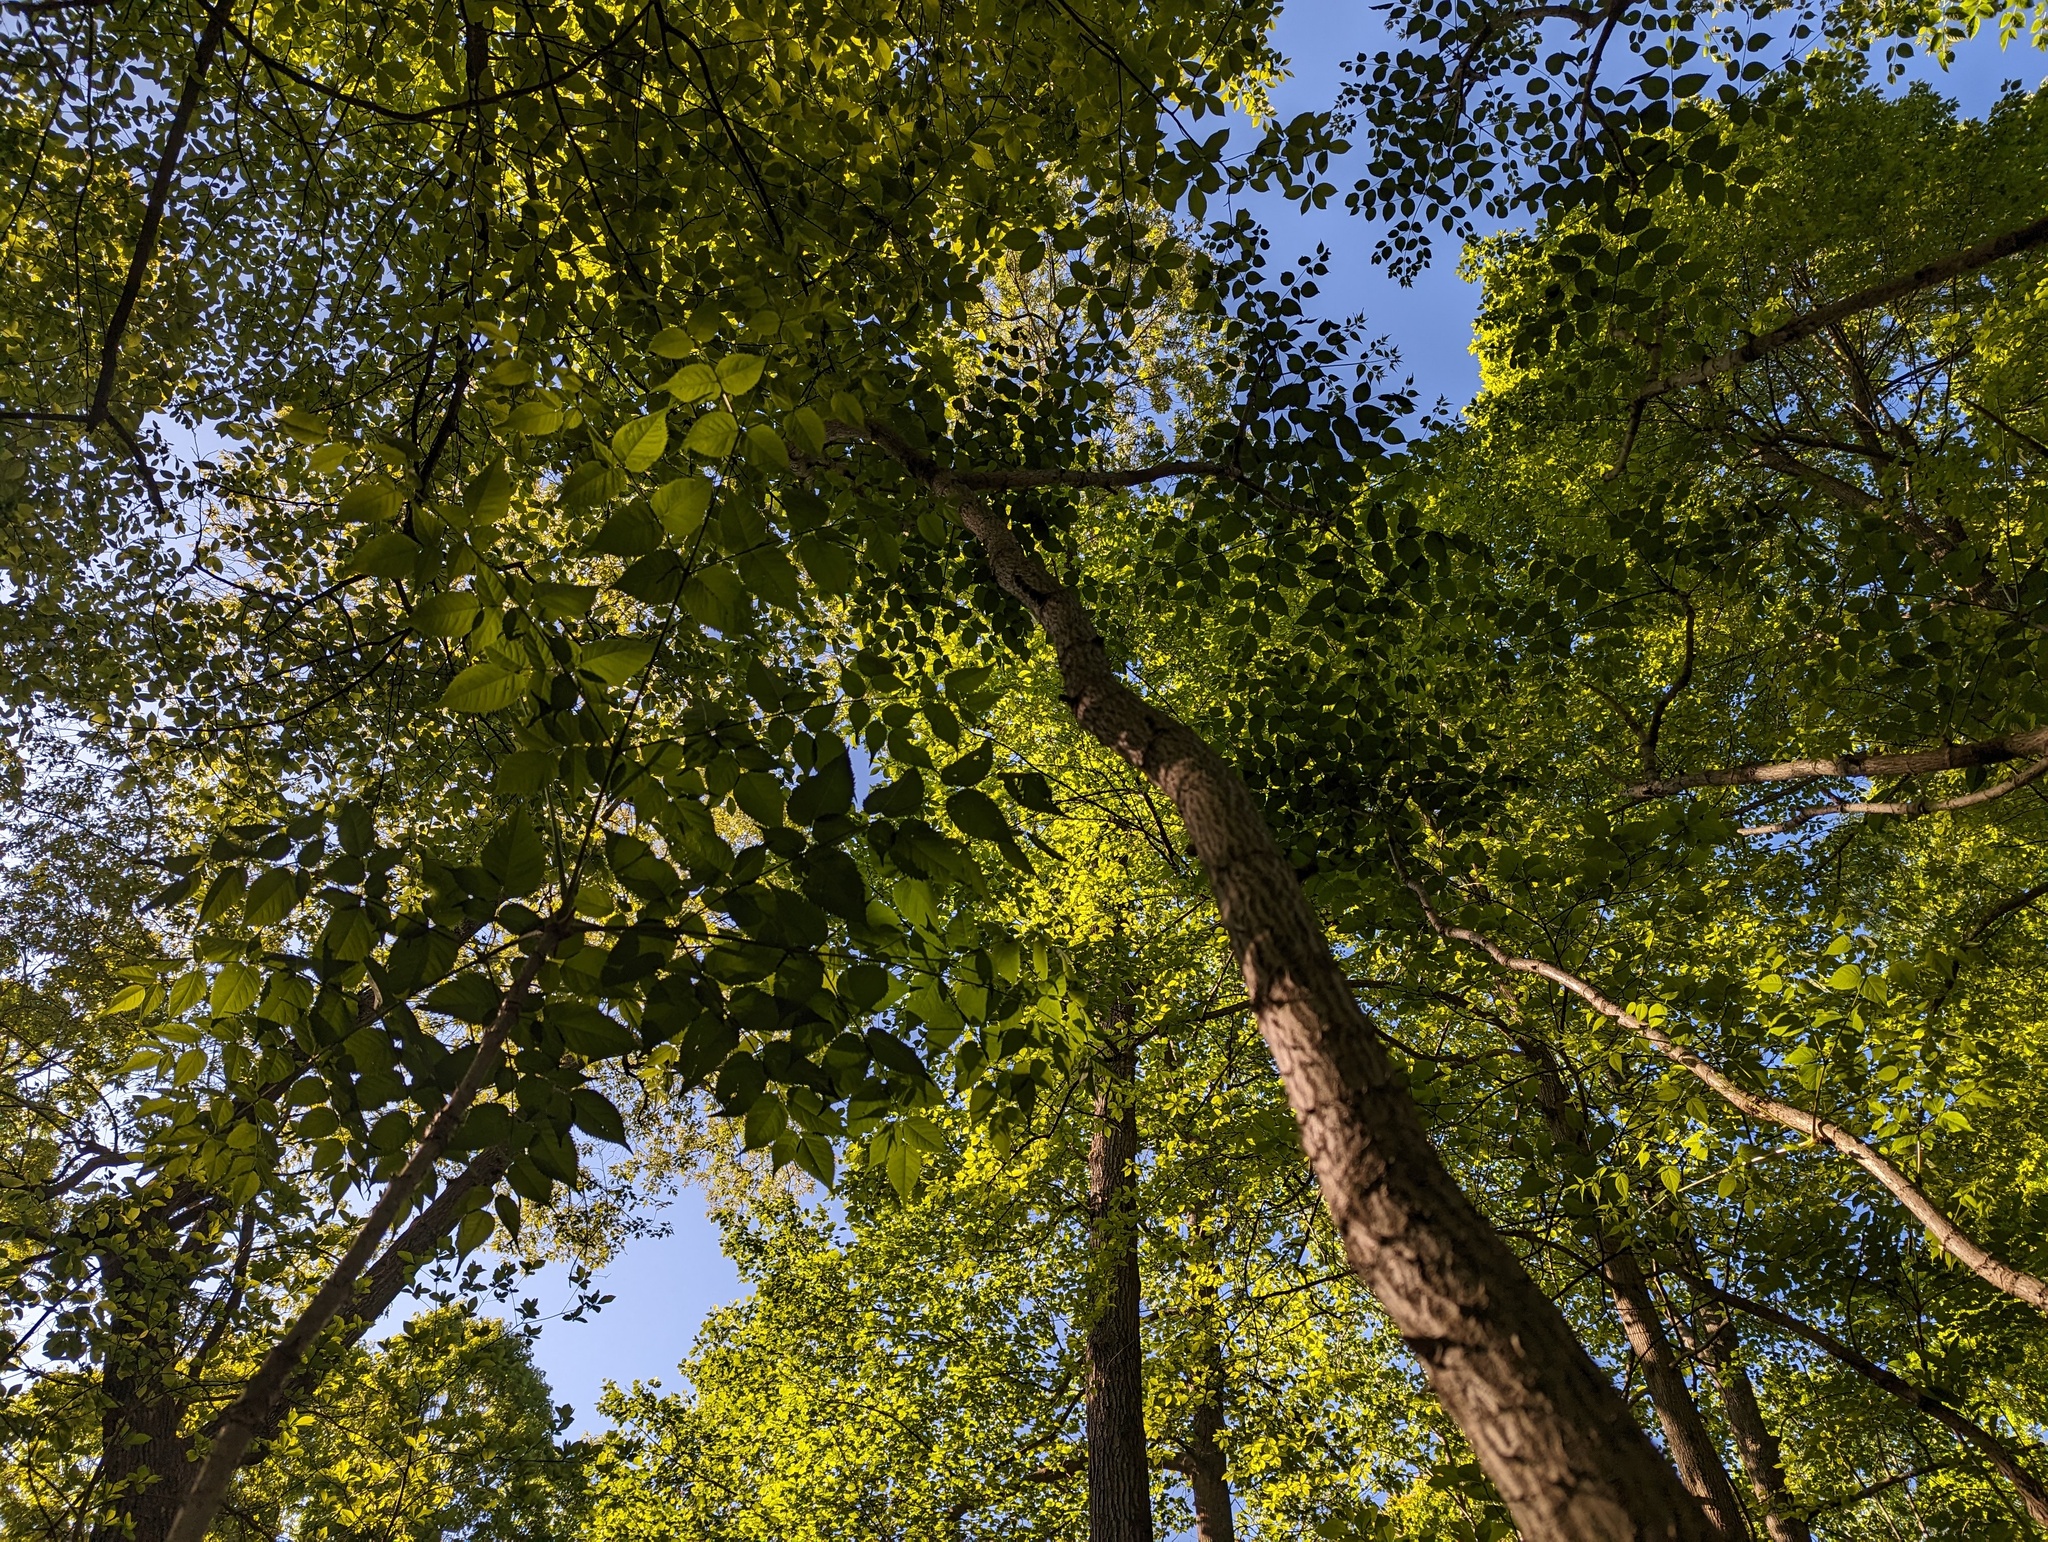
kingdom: Plantae
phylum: Tracheophyta
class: Magnoliopsida
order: Apiales
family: Araliaceae
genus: Aralia
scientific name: Aralia spinosa
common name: Hercules'-club
